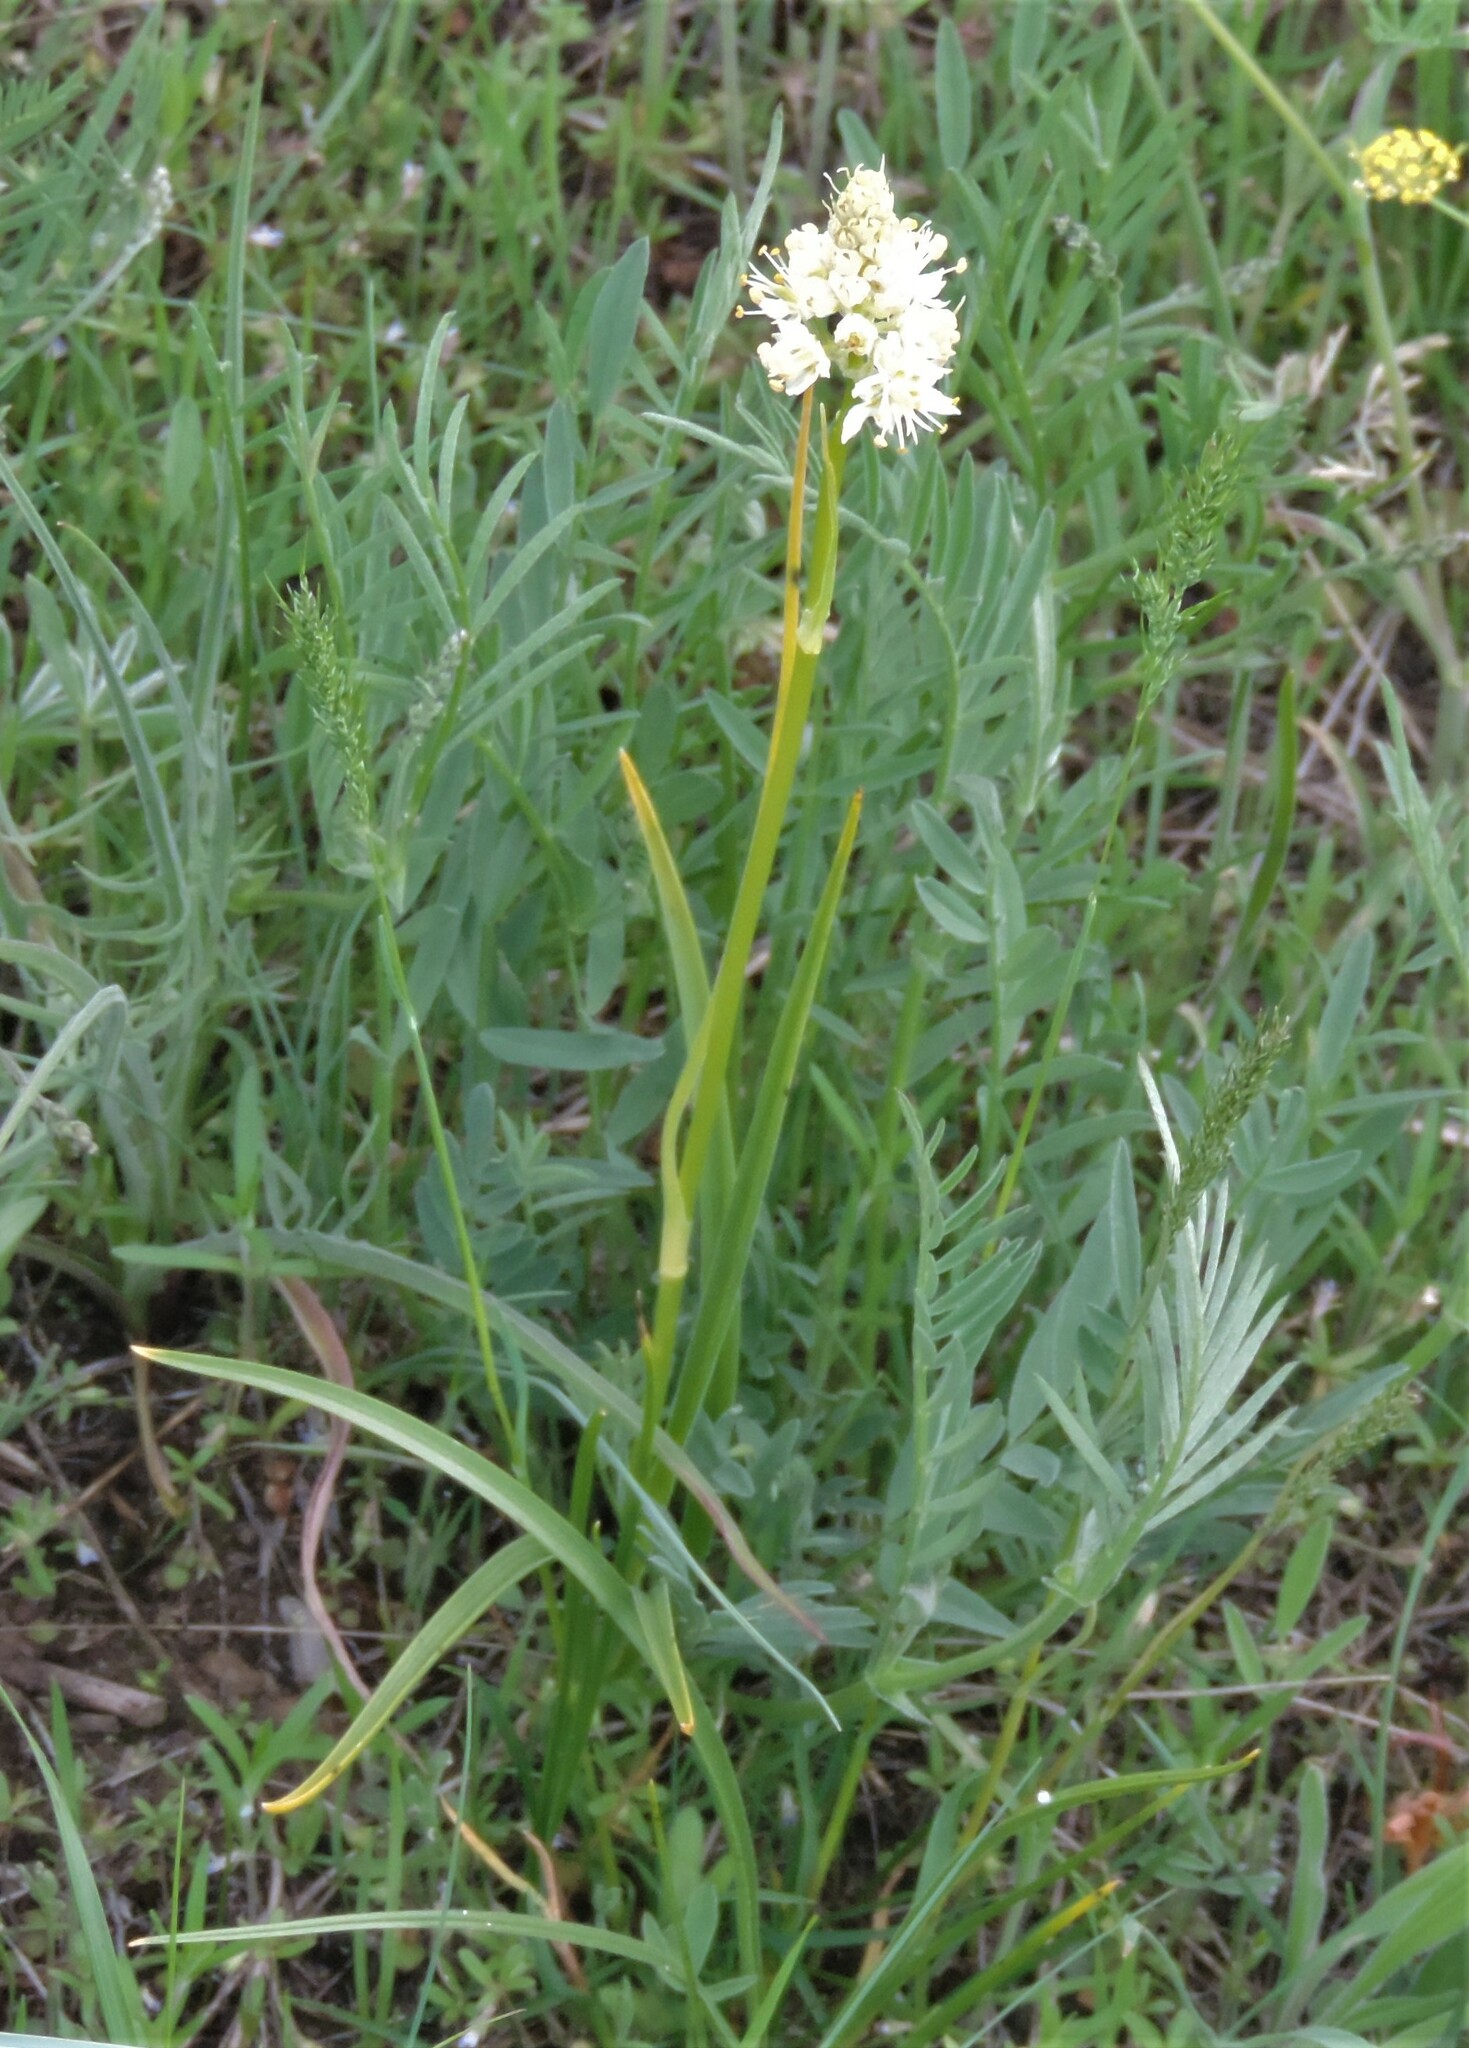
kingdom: Plantae
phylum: Tracheophyta
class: Liliopsida
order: Liliales
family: Melanthiaceae
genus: Toxicoscordion
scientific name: Toxicoscordion venenosum
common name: Meadow death camas
